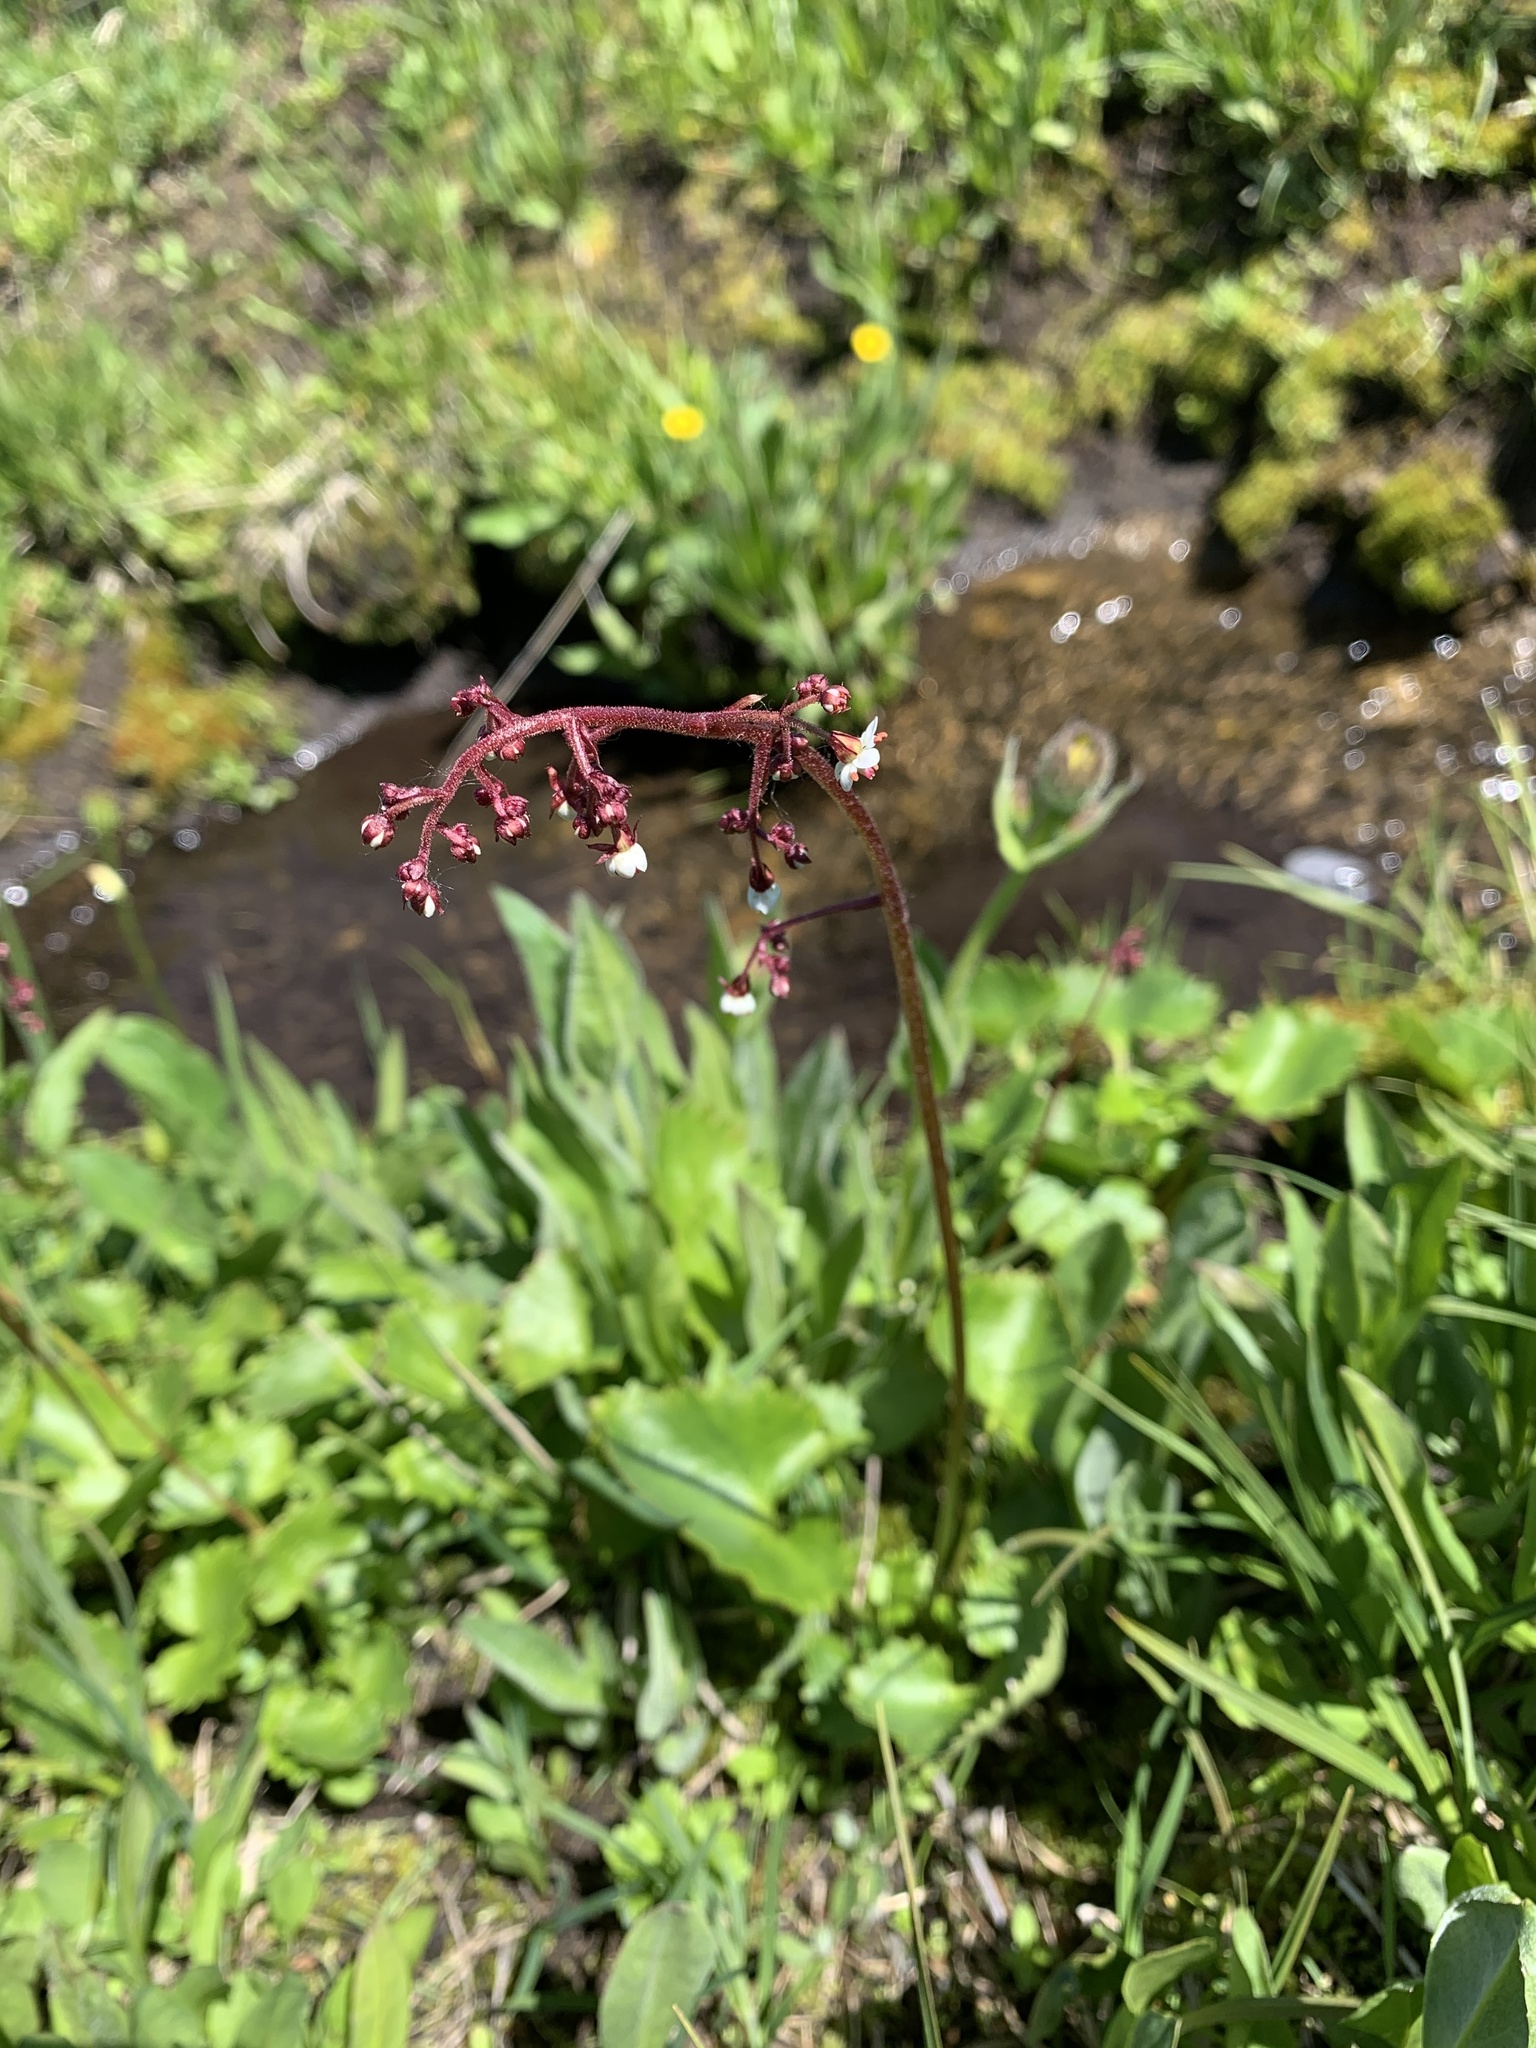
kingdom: Plantae
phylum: Tracheophyta
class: Magnoliopsida
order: Saxifragales
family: Saxifragaceae
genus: Micranthes
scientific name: Micranthes odontoloma
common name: Brook saxifrage
